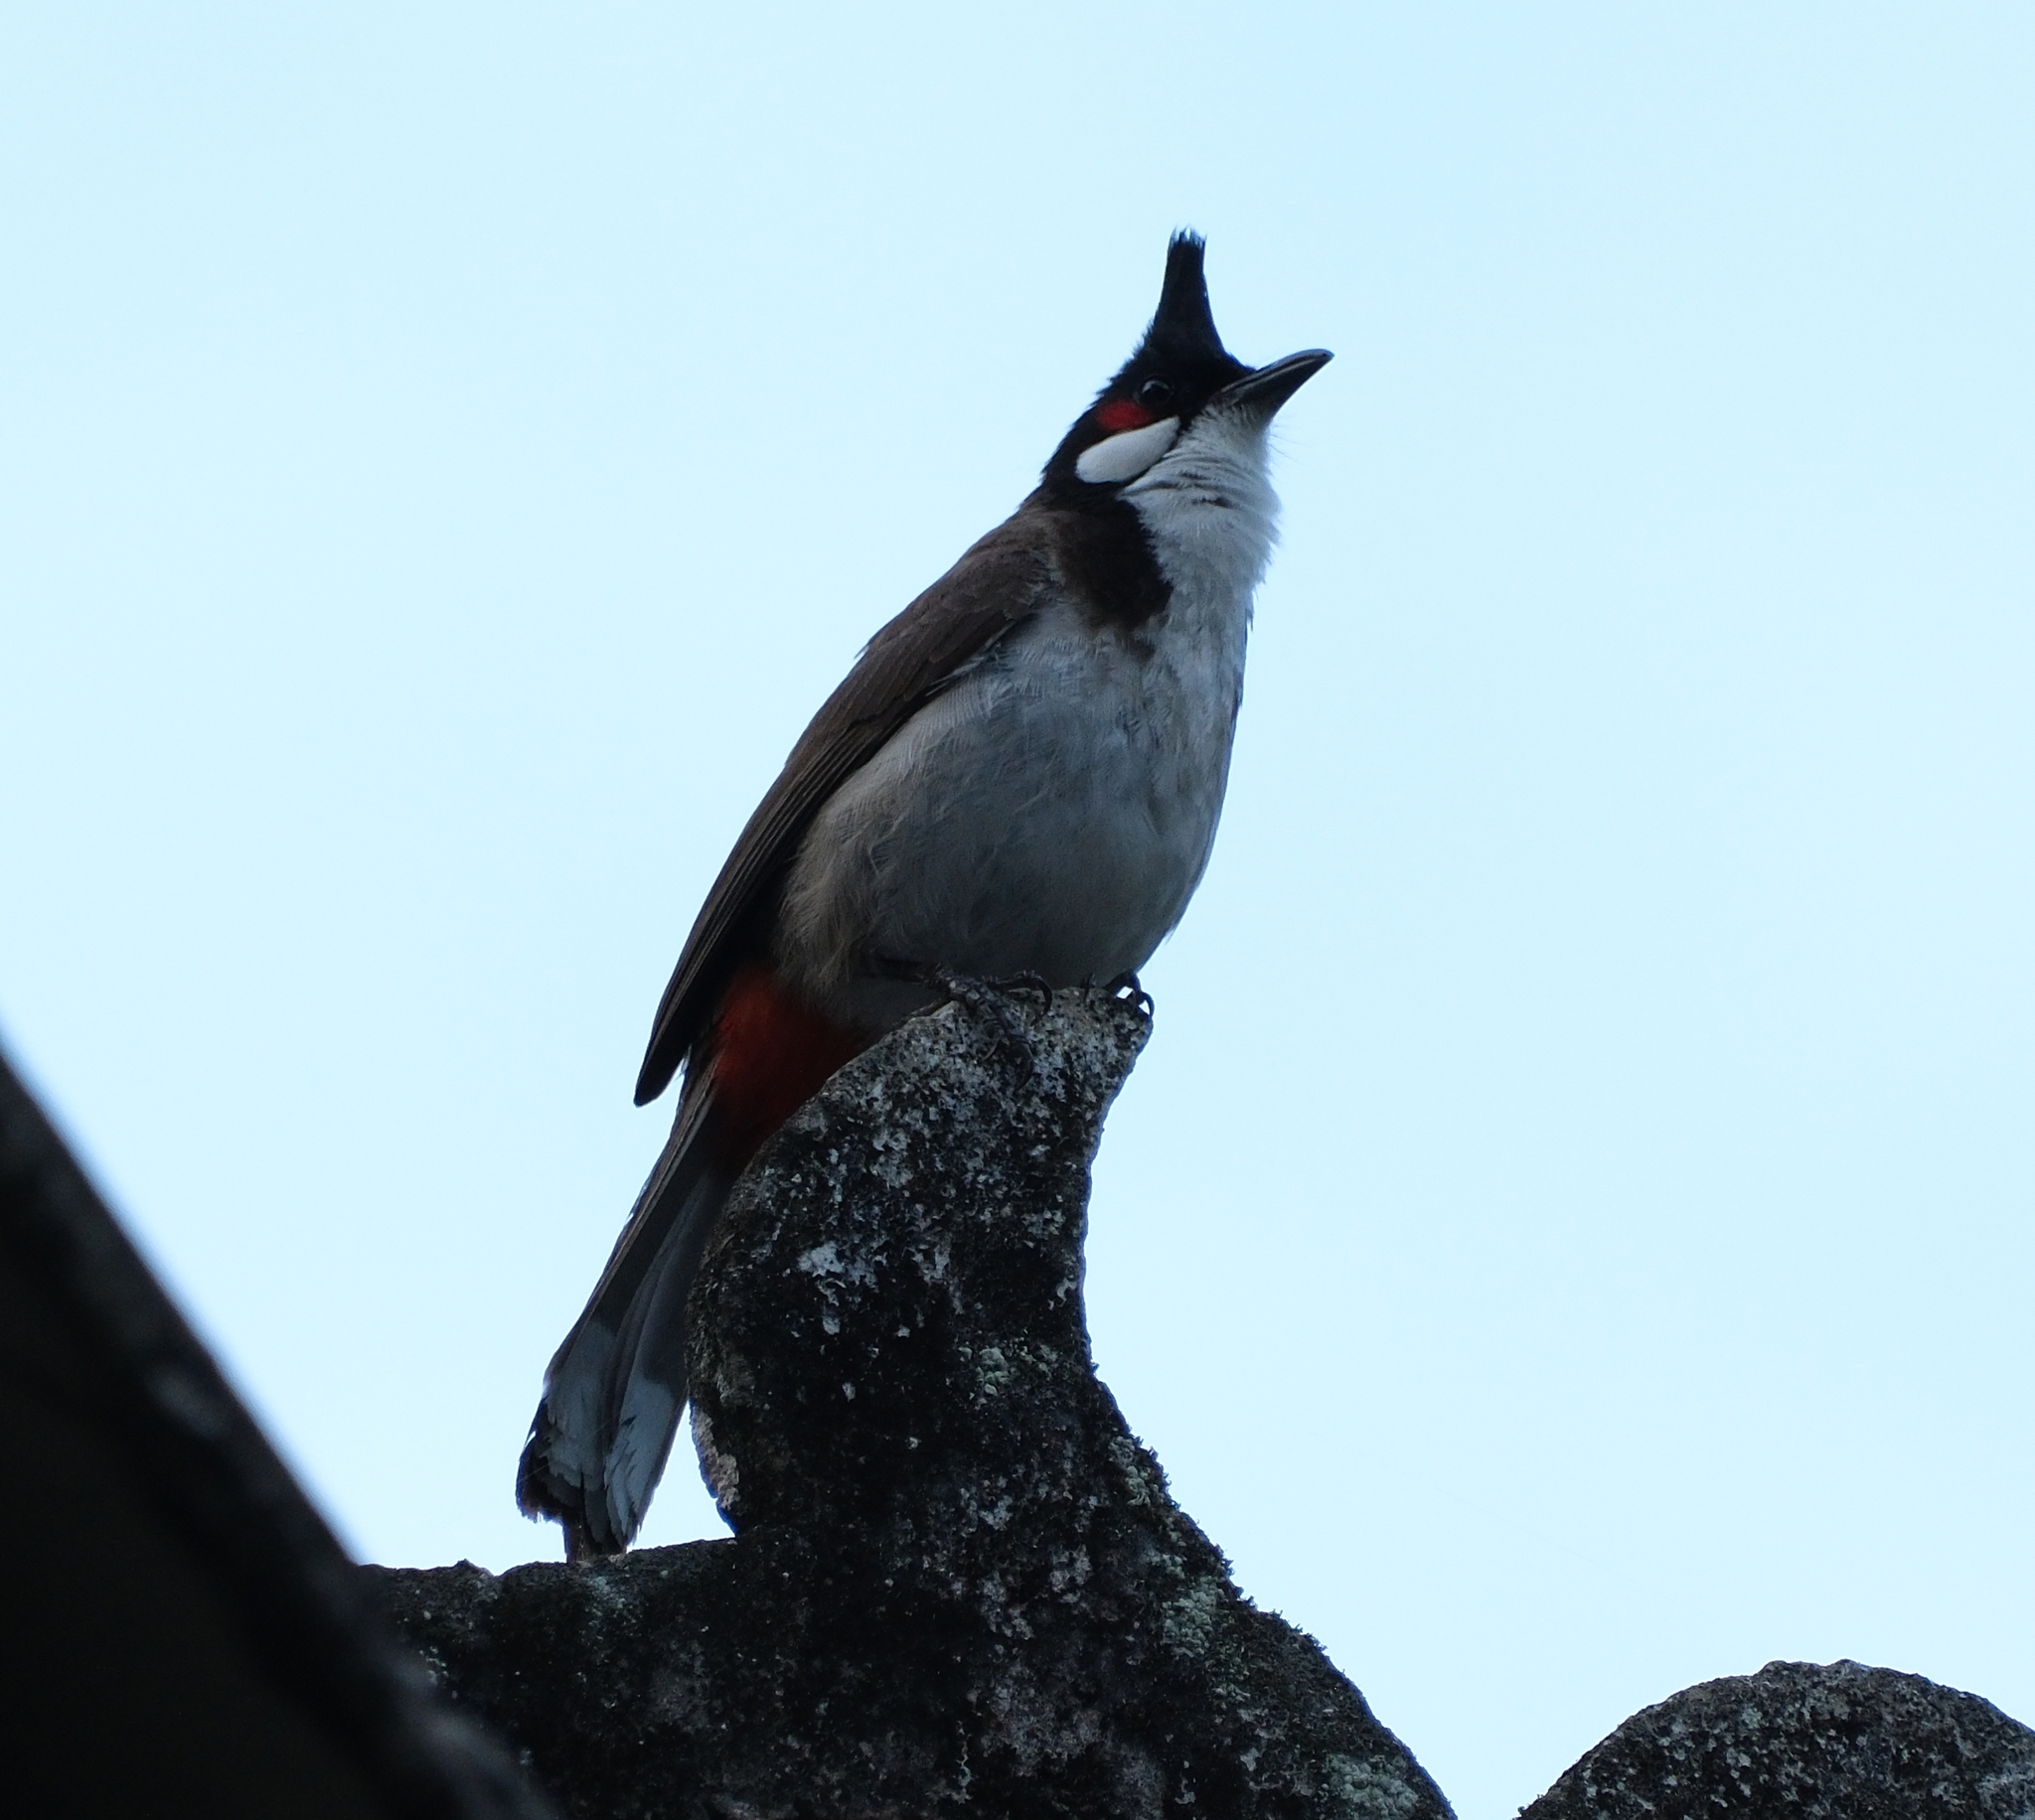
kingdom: Animalia
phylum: Chordata
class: Aves
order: Passeriformes
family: Pycnonotidae
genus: Pycnonotus
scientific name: Pycnonotus jocosus
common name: Red-whiskered bulbul
